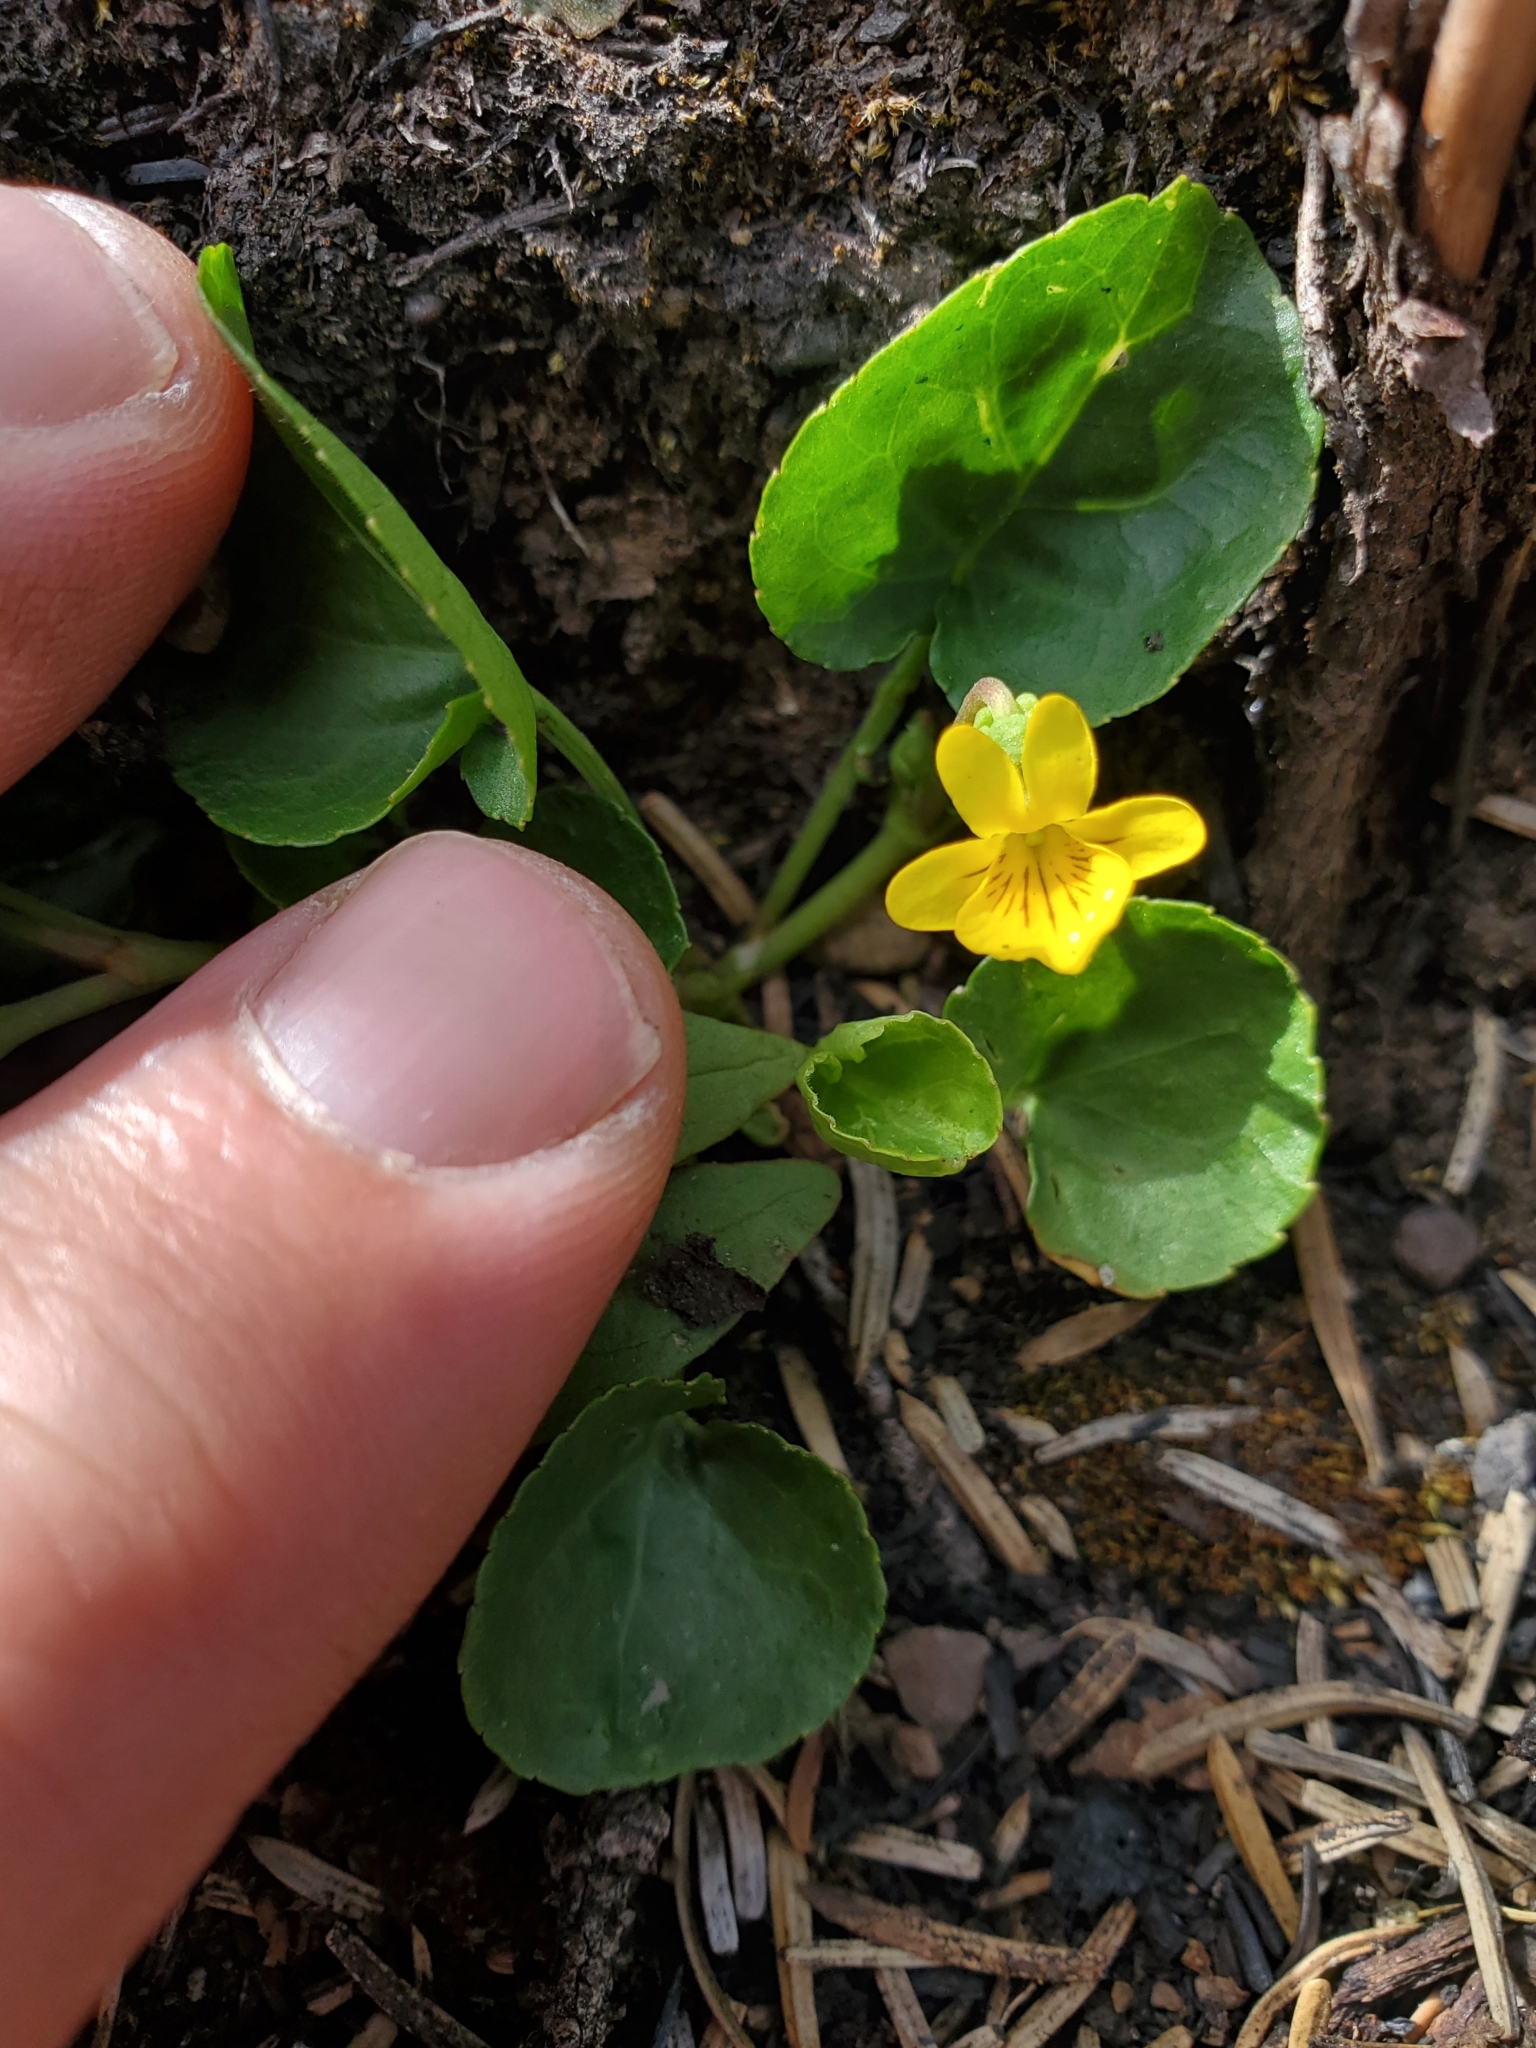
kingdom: Plantae
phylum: Tracheophyta
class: Magnoliopsida
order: Malpighiales
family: Violaceae
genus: Viola
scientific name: Viola orbiculata
